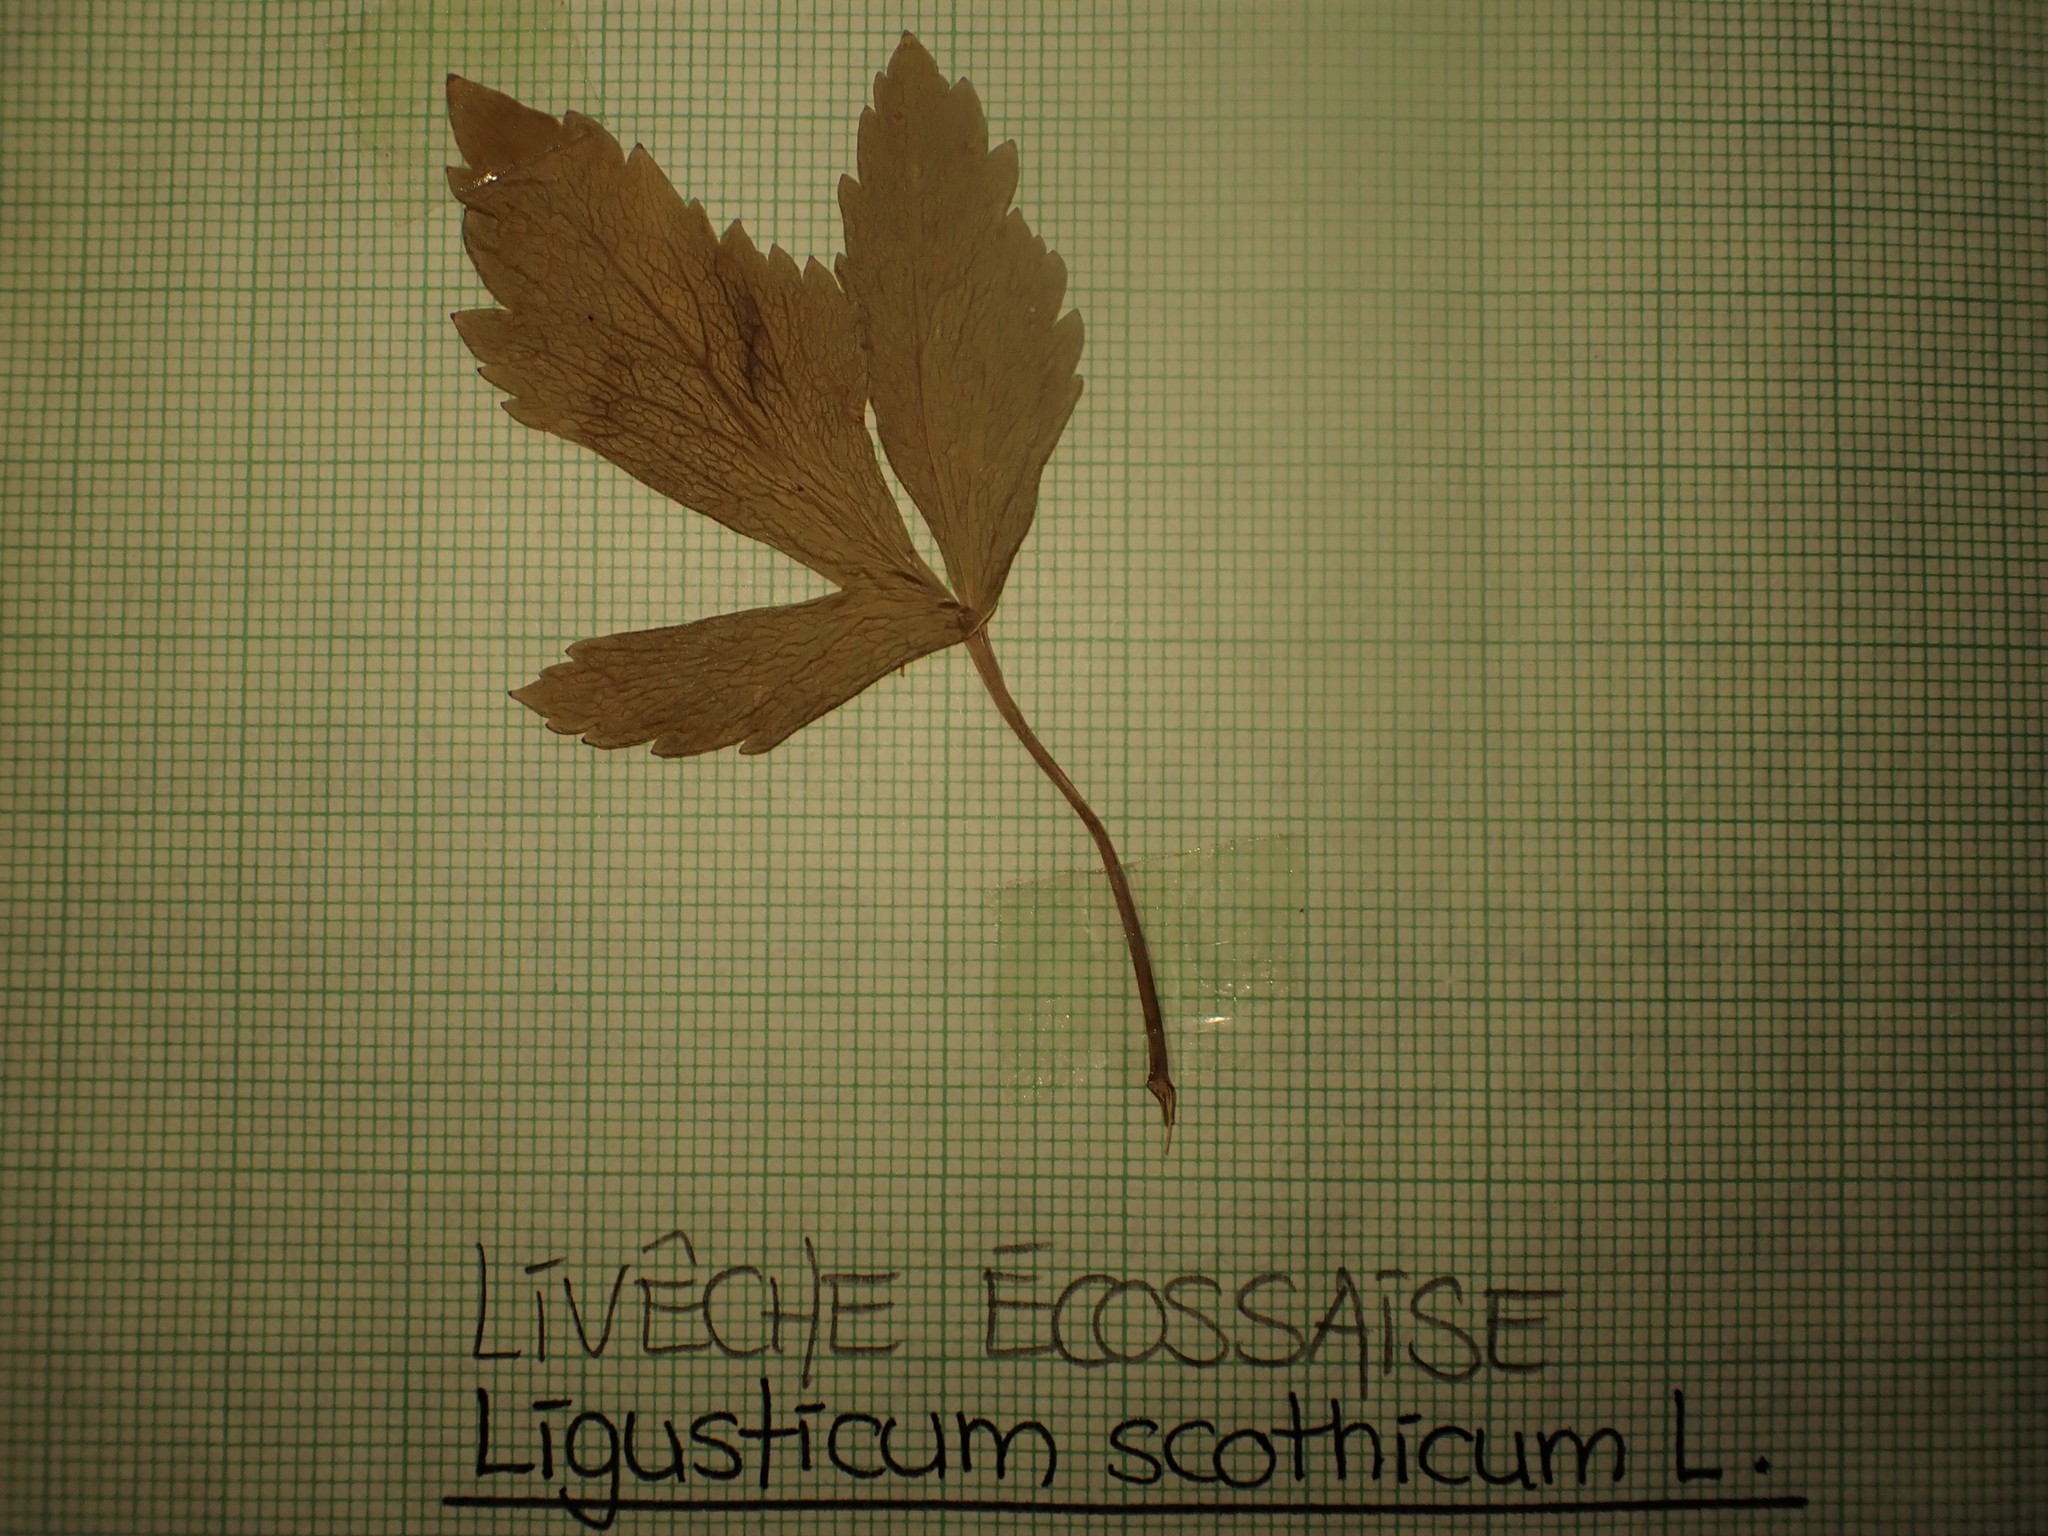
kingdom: Plantae
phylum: Tracheophyta
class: Magnoliopsida
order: Apiales
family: Apiaceae
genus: Ligusticum
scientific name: Ligusticum scothicum
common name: Beach lovage
